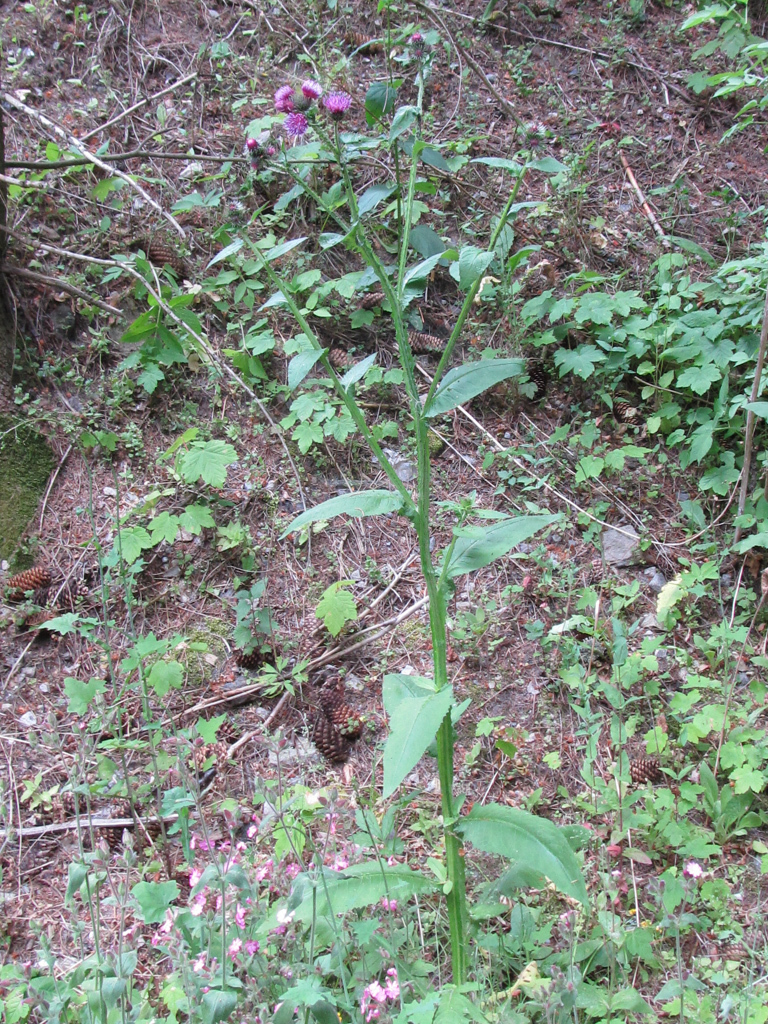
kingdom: Plantae
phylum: Tracheophyta
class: Magnoliopsida
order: Asterales
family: Asteraceae
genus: Carduus
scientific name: Carduus personata
